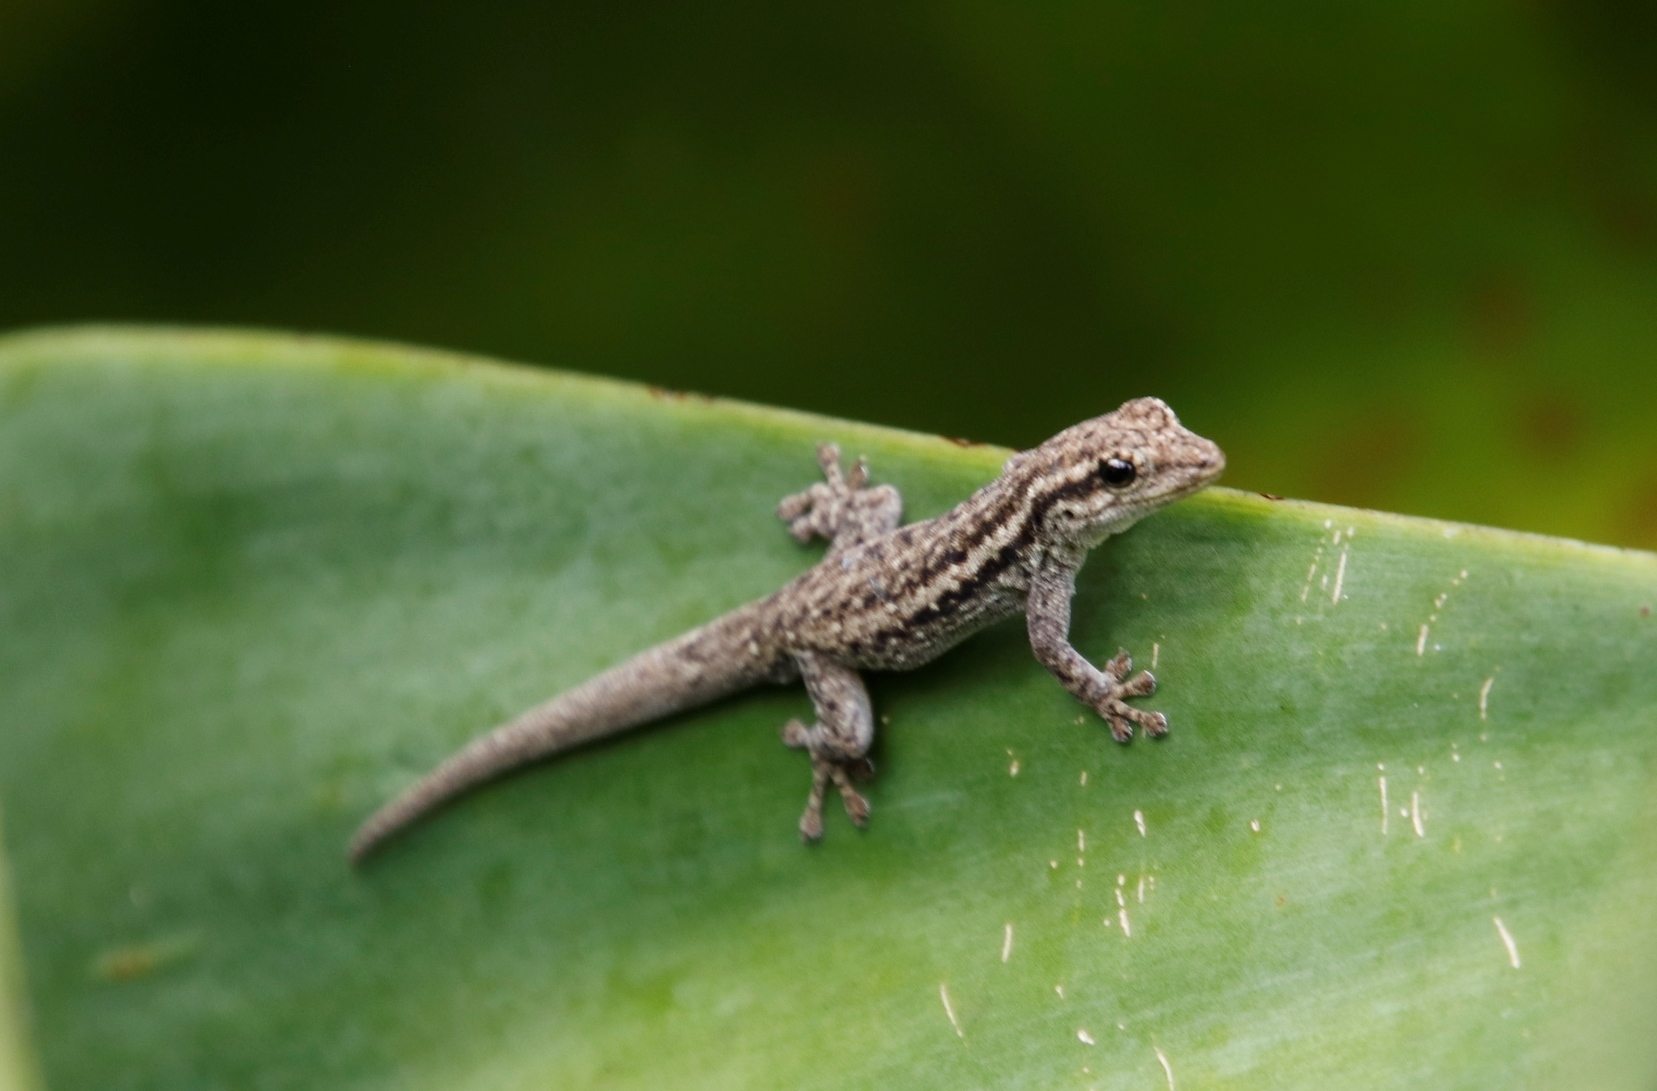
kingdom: Animalia
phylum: Chordata
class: Squamata
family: Gekkonidae
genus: Lygodactylus
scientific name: Lygodactylus capensis
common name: Cape dwarf gecko
